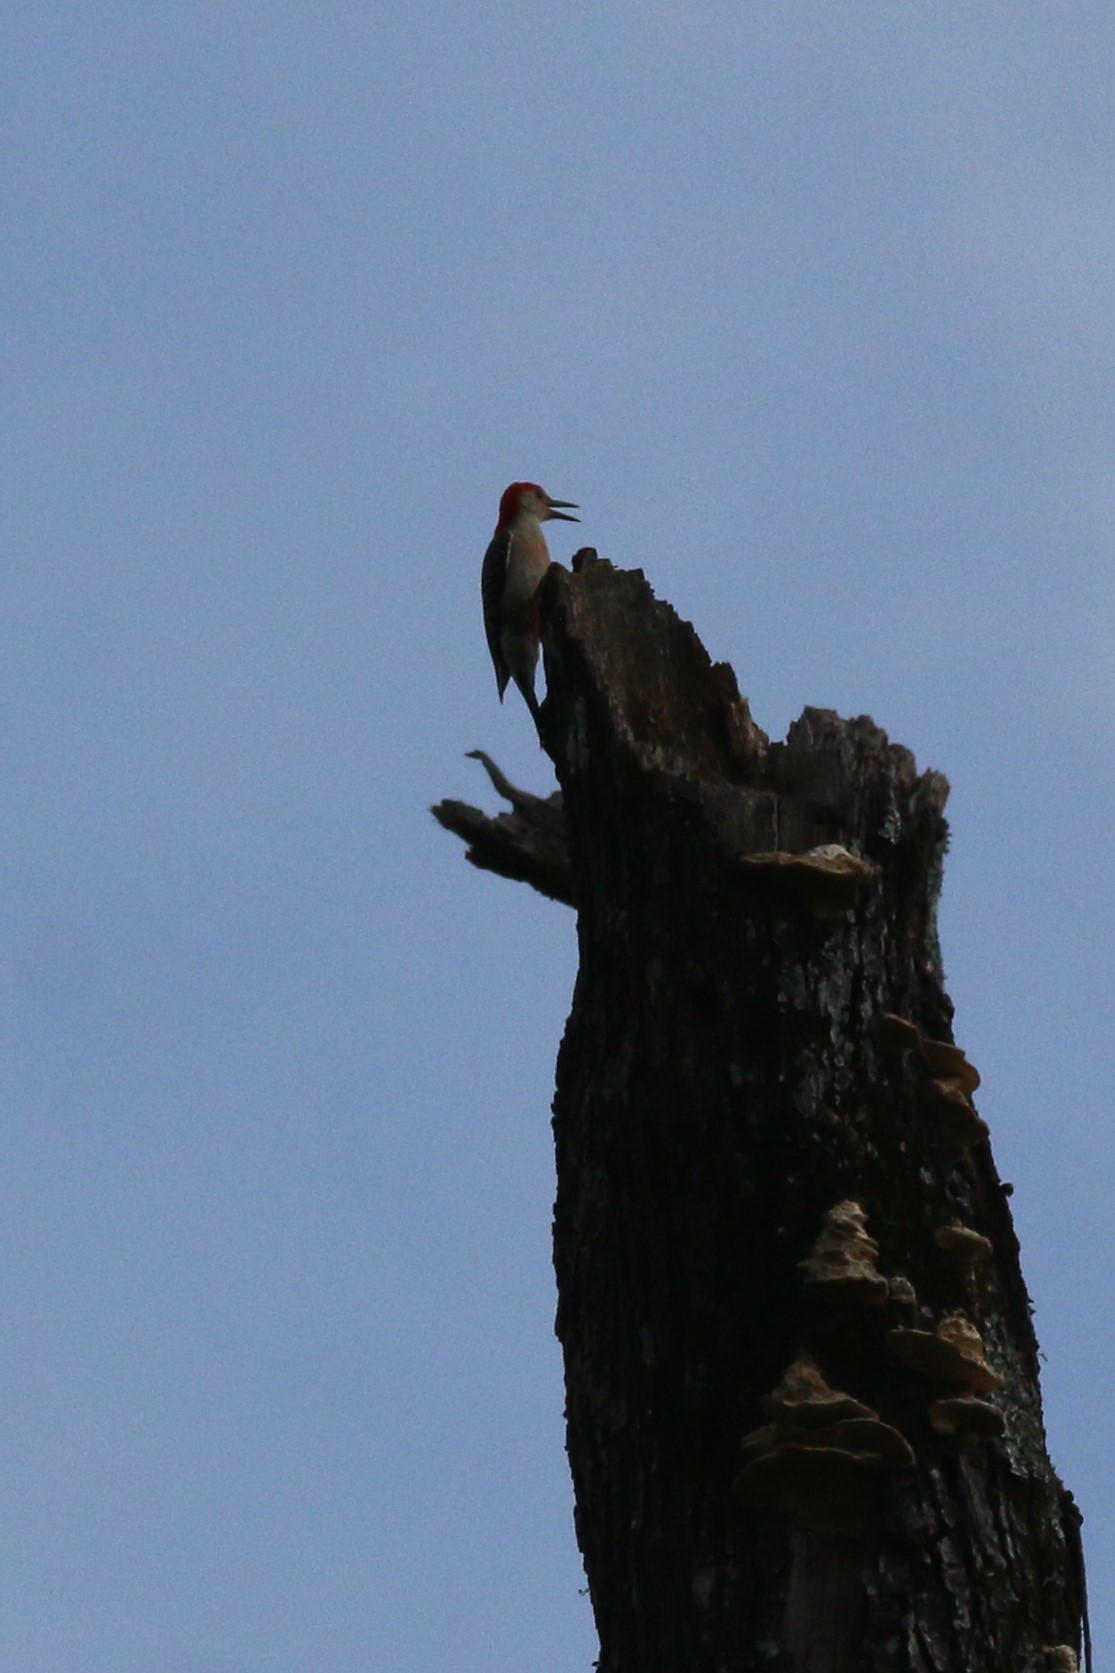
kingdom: Animalia
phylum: Chordata
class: Aves
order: Piciformes
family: Picidae
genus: Melanerpes
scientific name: Melanerpes carolinus
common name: Red-bellied woodpecker
